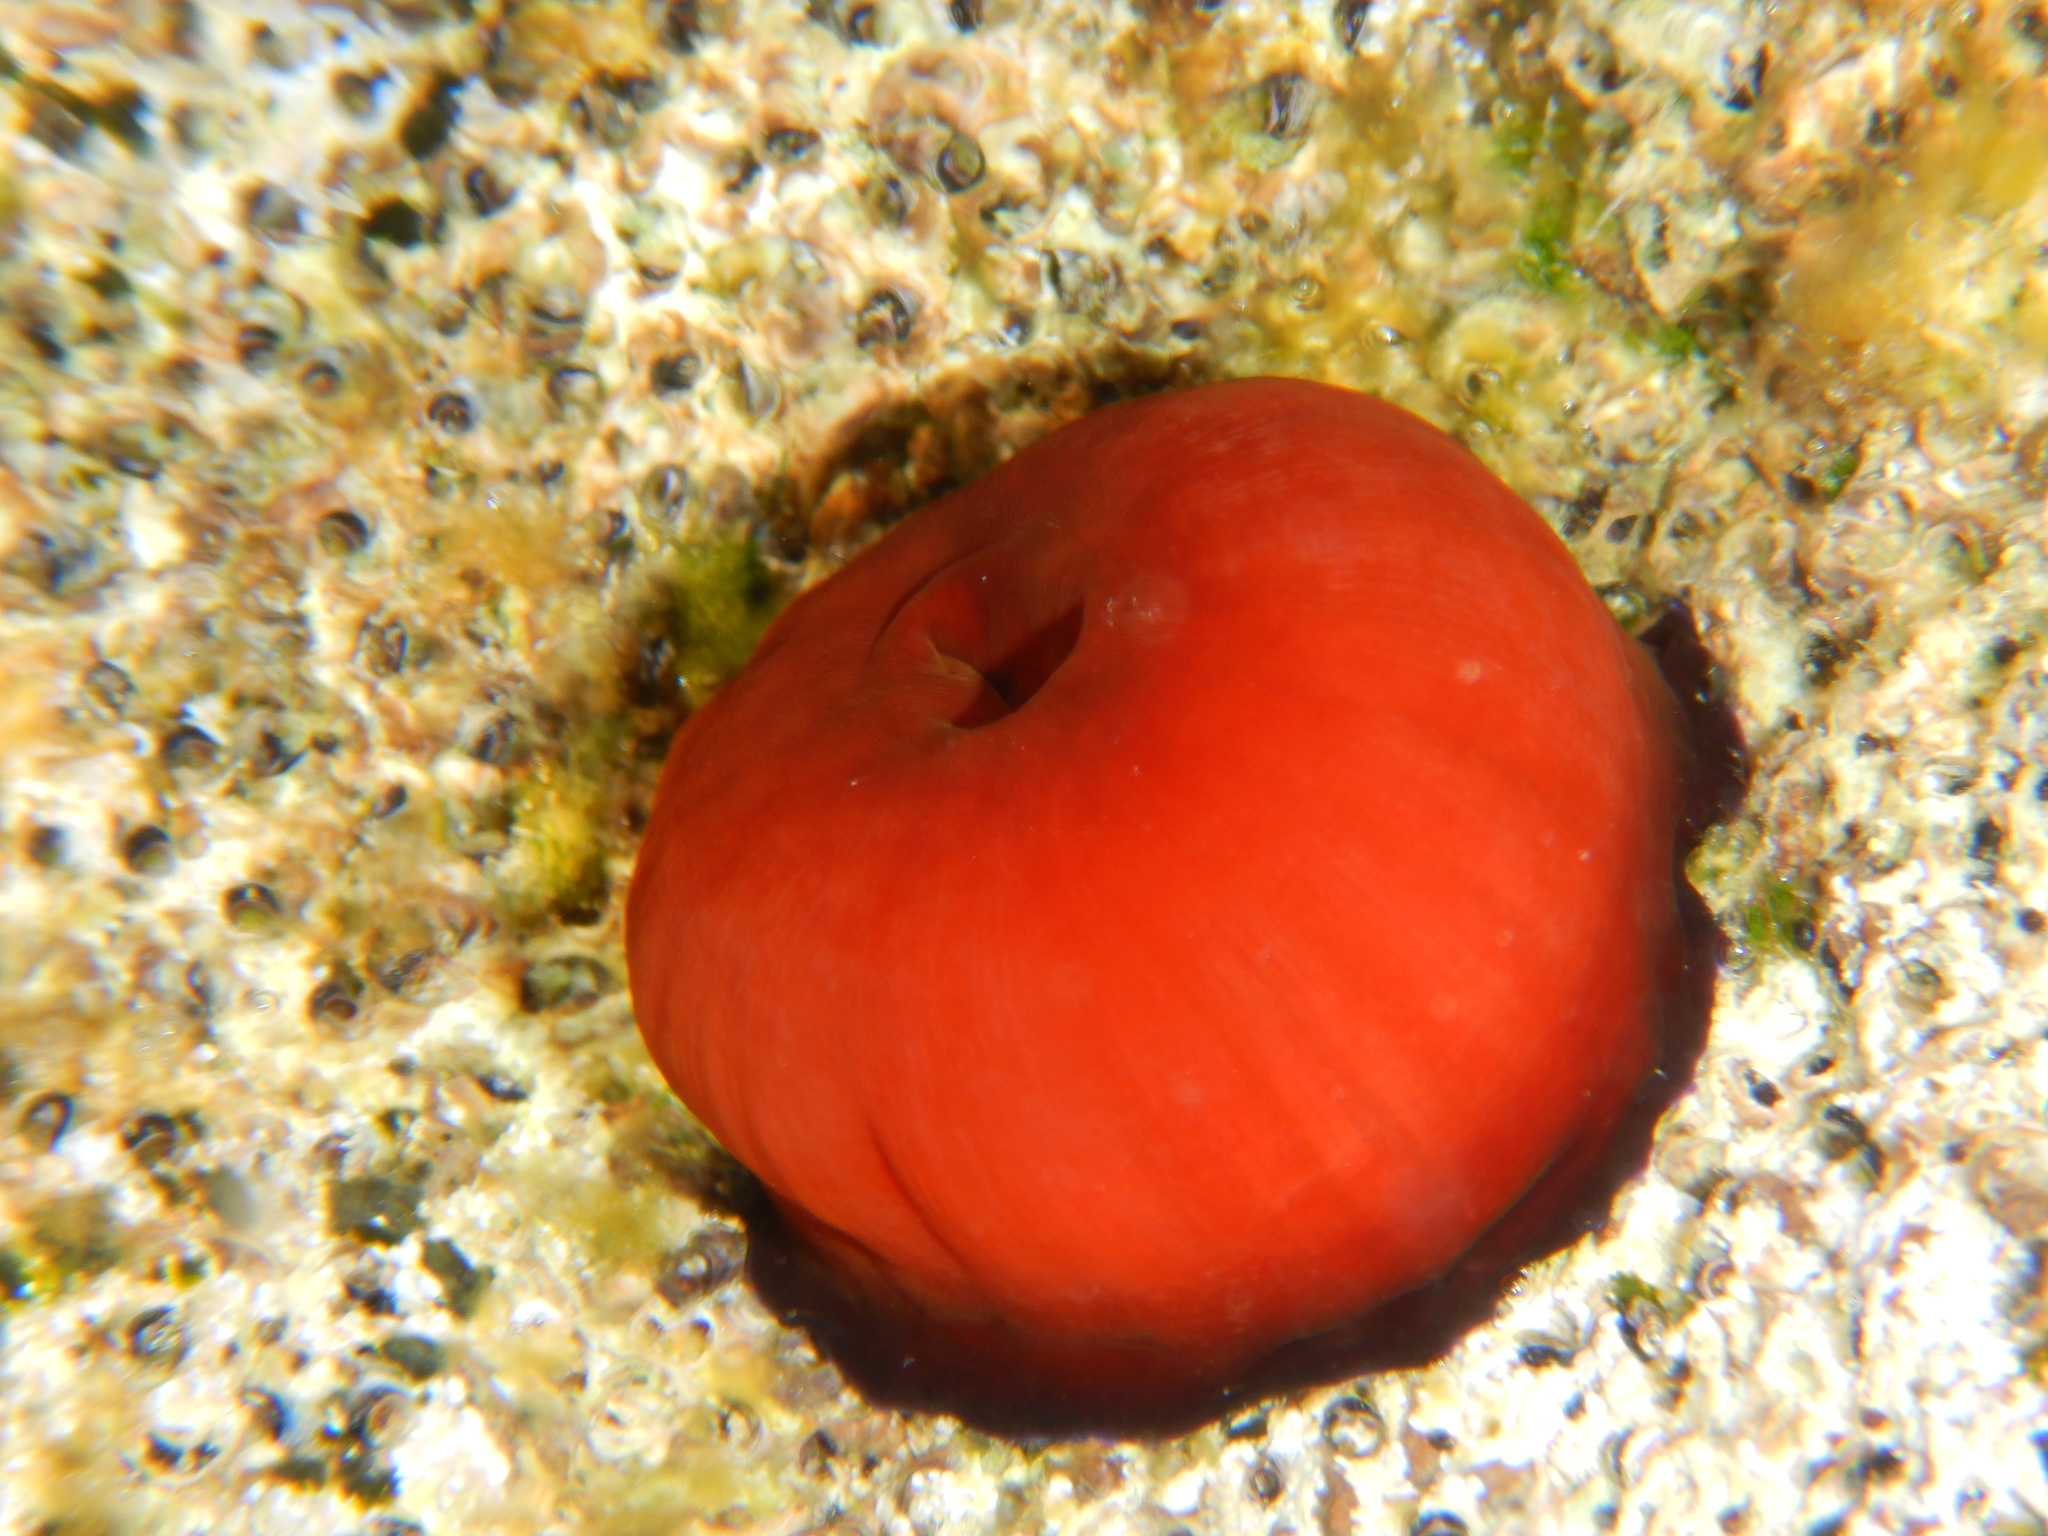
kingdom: Animalia
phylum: Cnidaria
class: Anthozoa
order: Actiniaria
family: Actiniidae
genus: Actinia
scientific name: Actinia mediterranea
